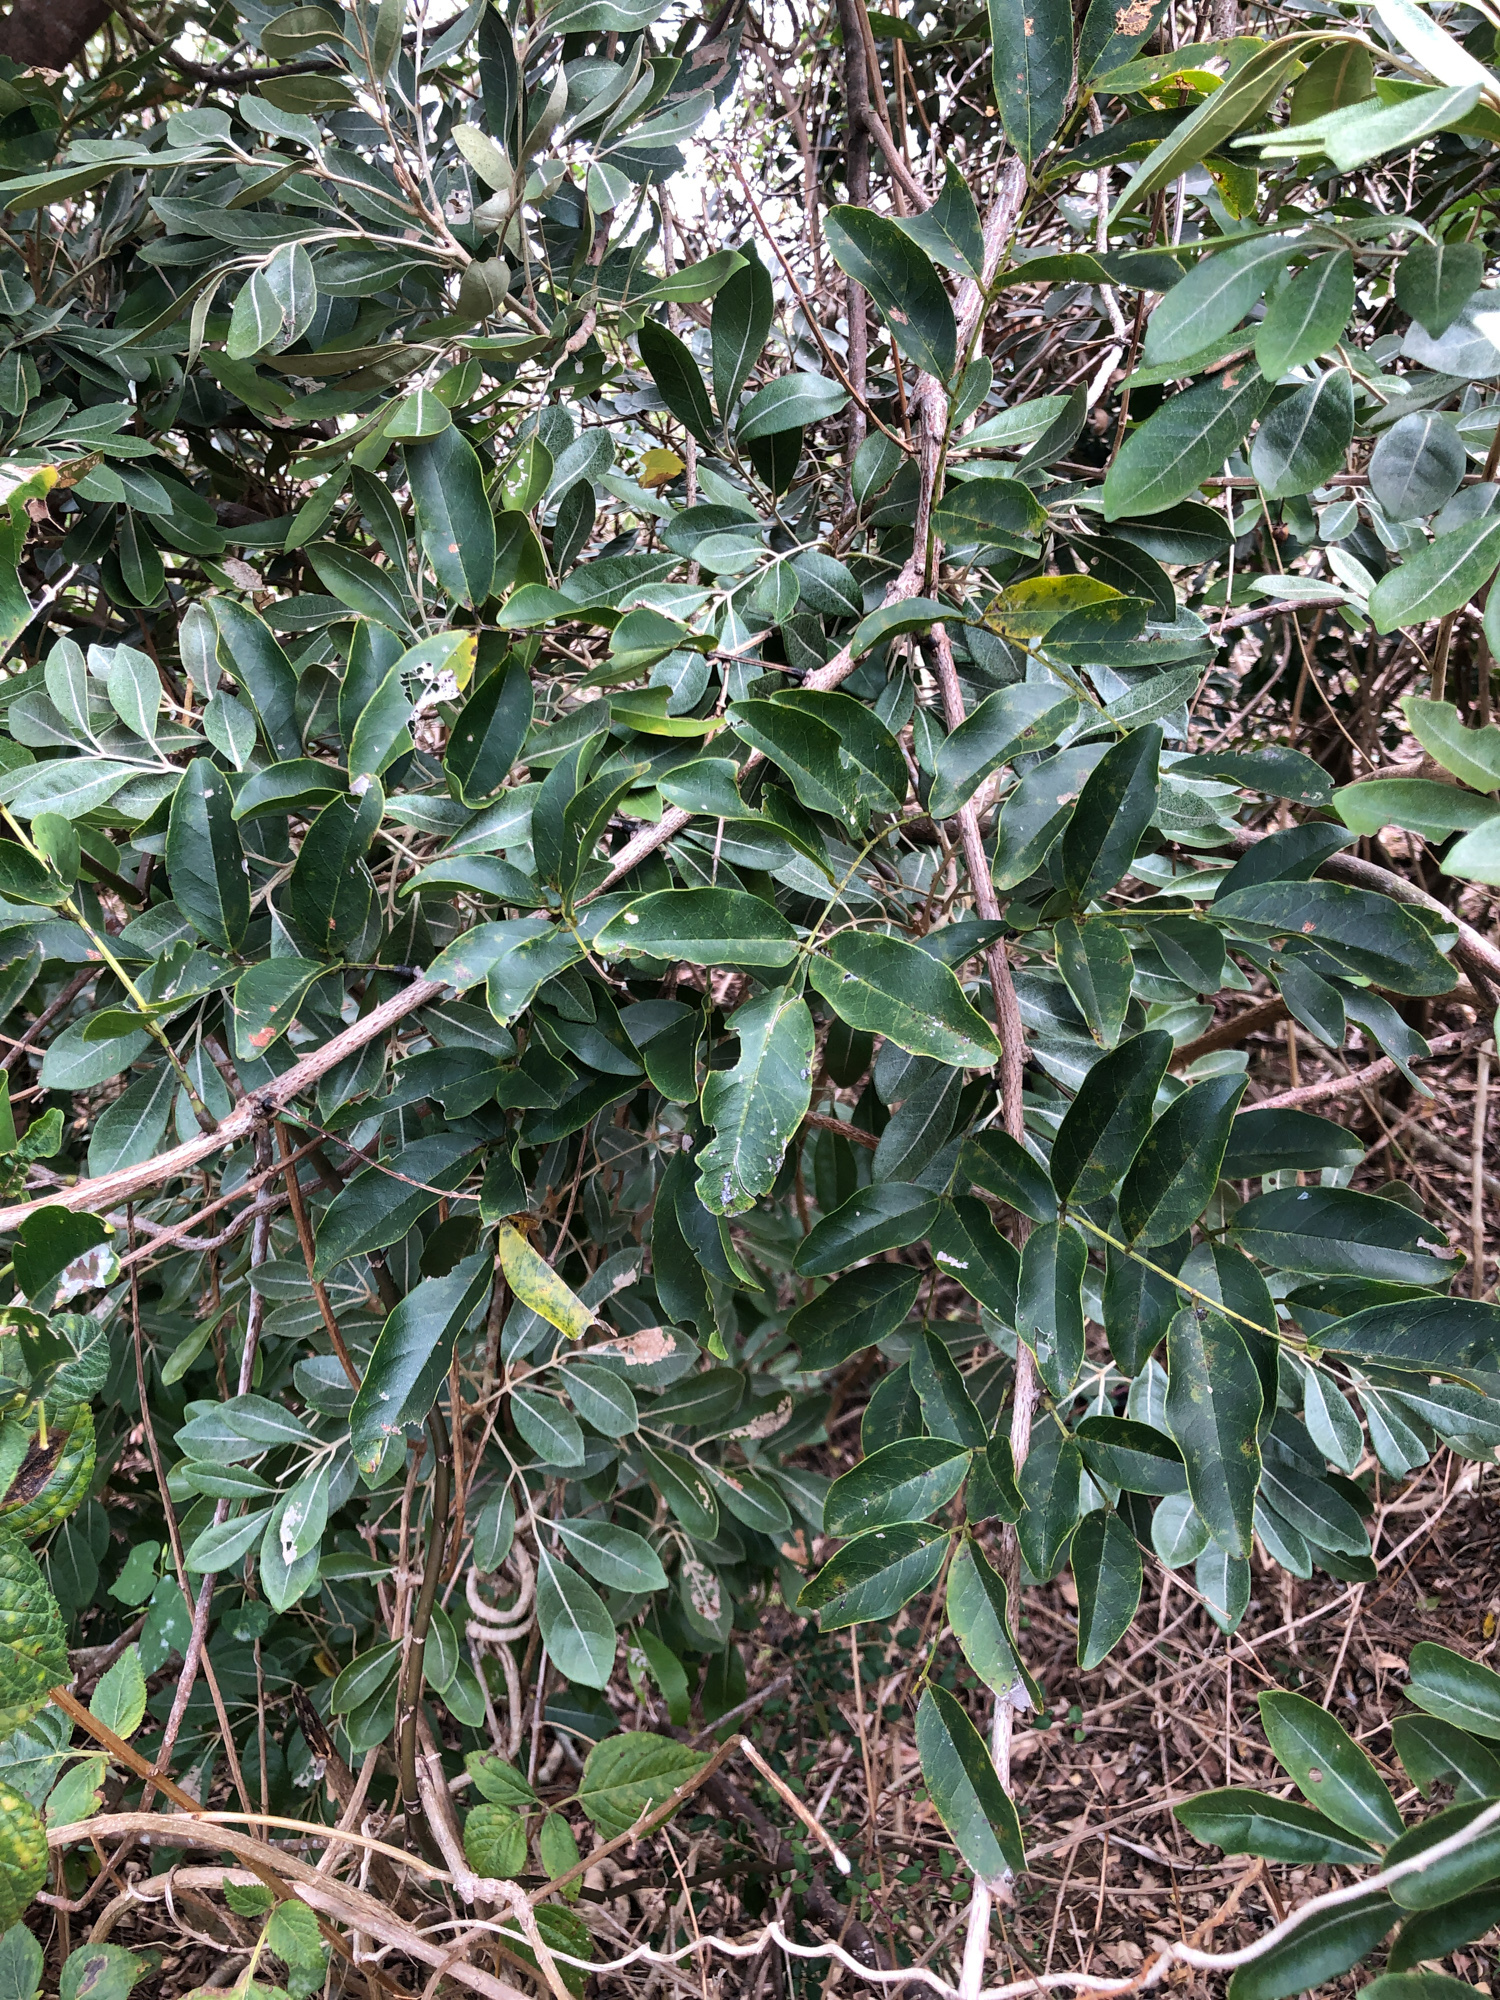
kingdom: Plantae
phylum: Tracheophyta
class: Magnoliopsida
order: Fabales
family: Fabaceae
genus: Wisteriopsis
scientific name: Wisteriopsis reticulata
